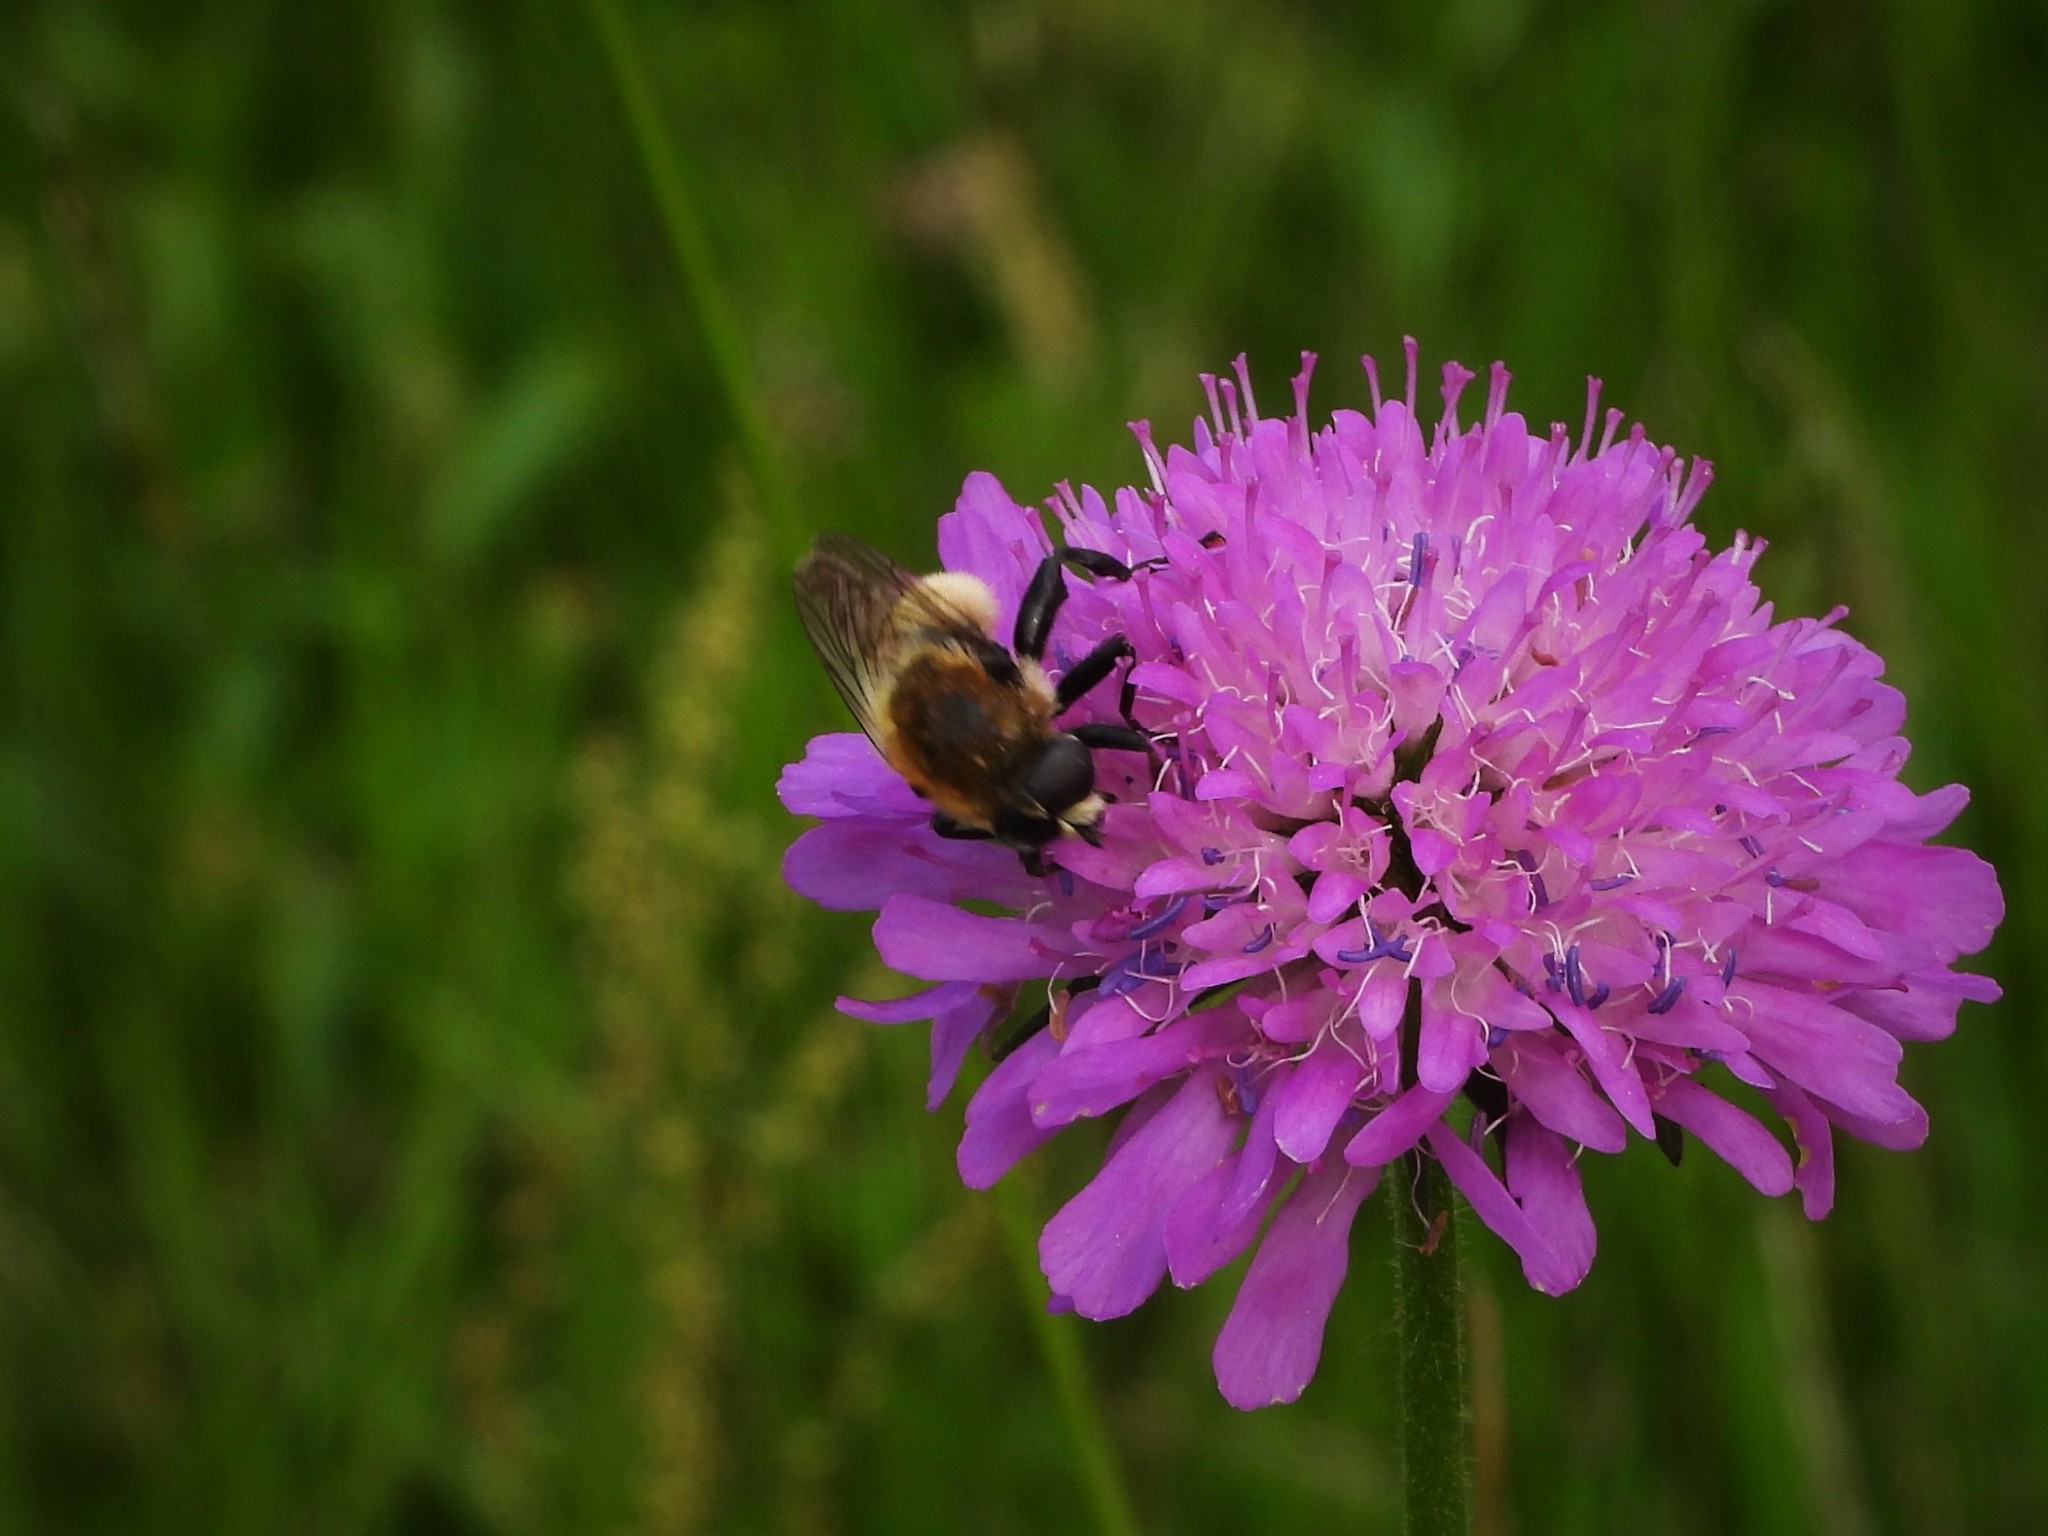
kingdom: Animalia
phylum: Arthropoda
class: Insecta
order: Diptera
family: Syrphidae
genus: Merodon
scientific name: Merodon equestris
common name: Greater bulb-fly
